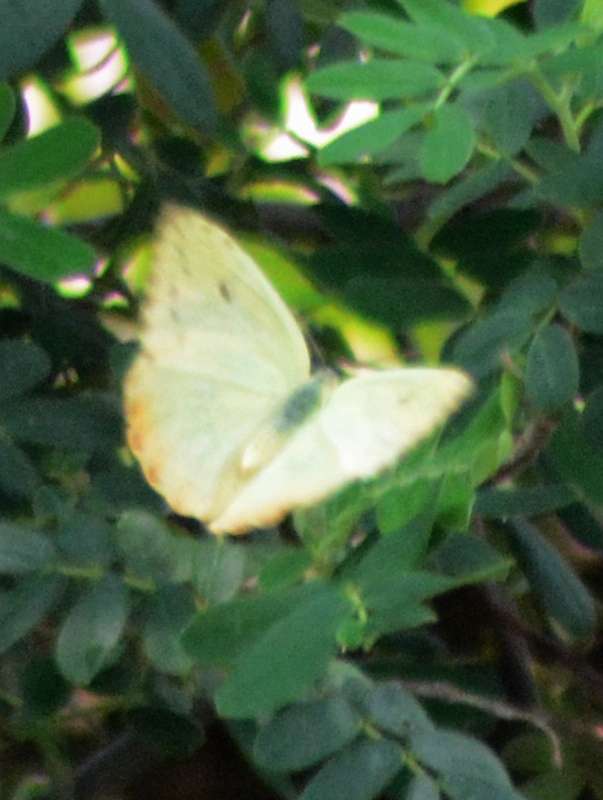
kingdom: Animalia
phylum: Arthropoda
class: Insecta
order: Lepidoptera
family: Pieridae
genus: Phoebis
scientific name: Phoebis philea
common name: Orange-barred giant sulphur
